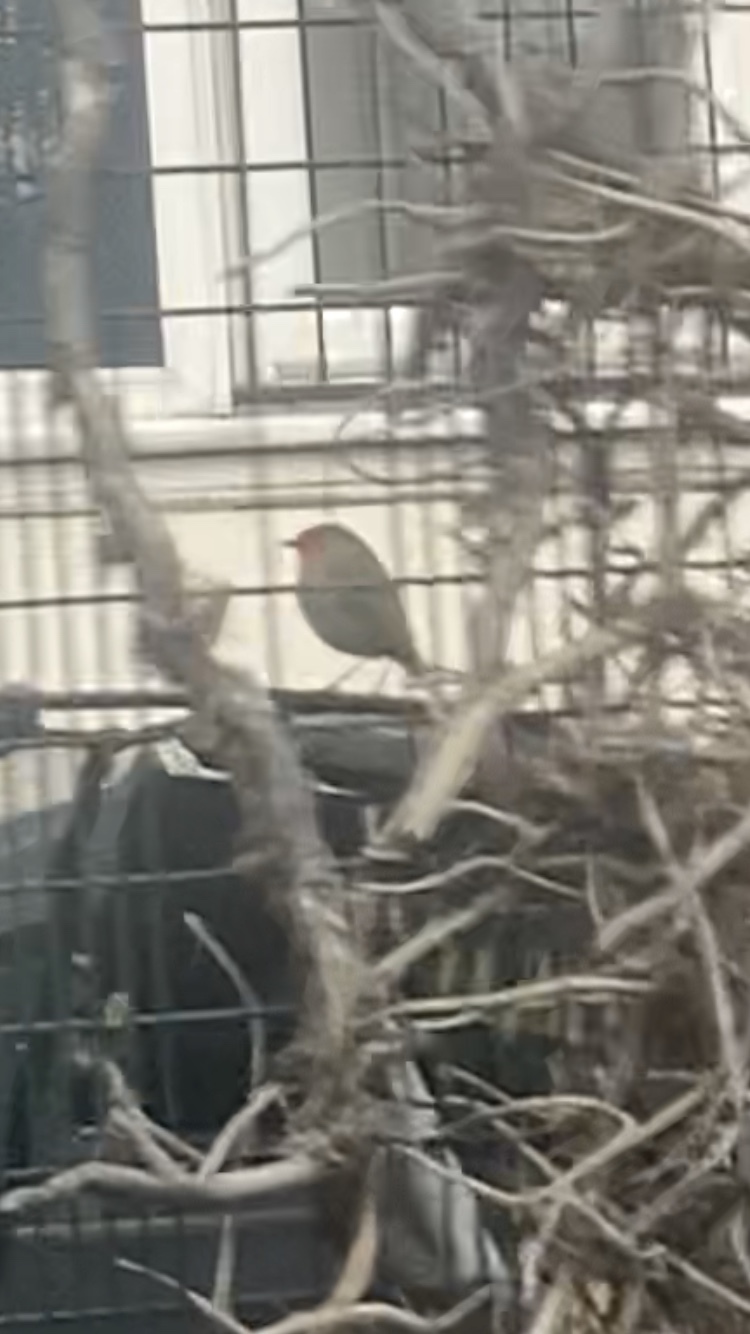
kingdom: Animalia
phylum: Chordata
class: Aves
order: Passeriformes
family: Muscicapidae
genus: Erithacus
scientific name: Erithacus rubecula
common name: European robin
